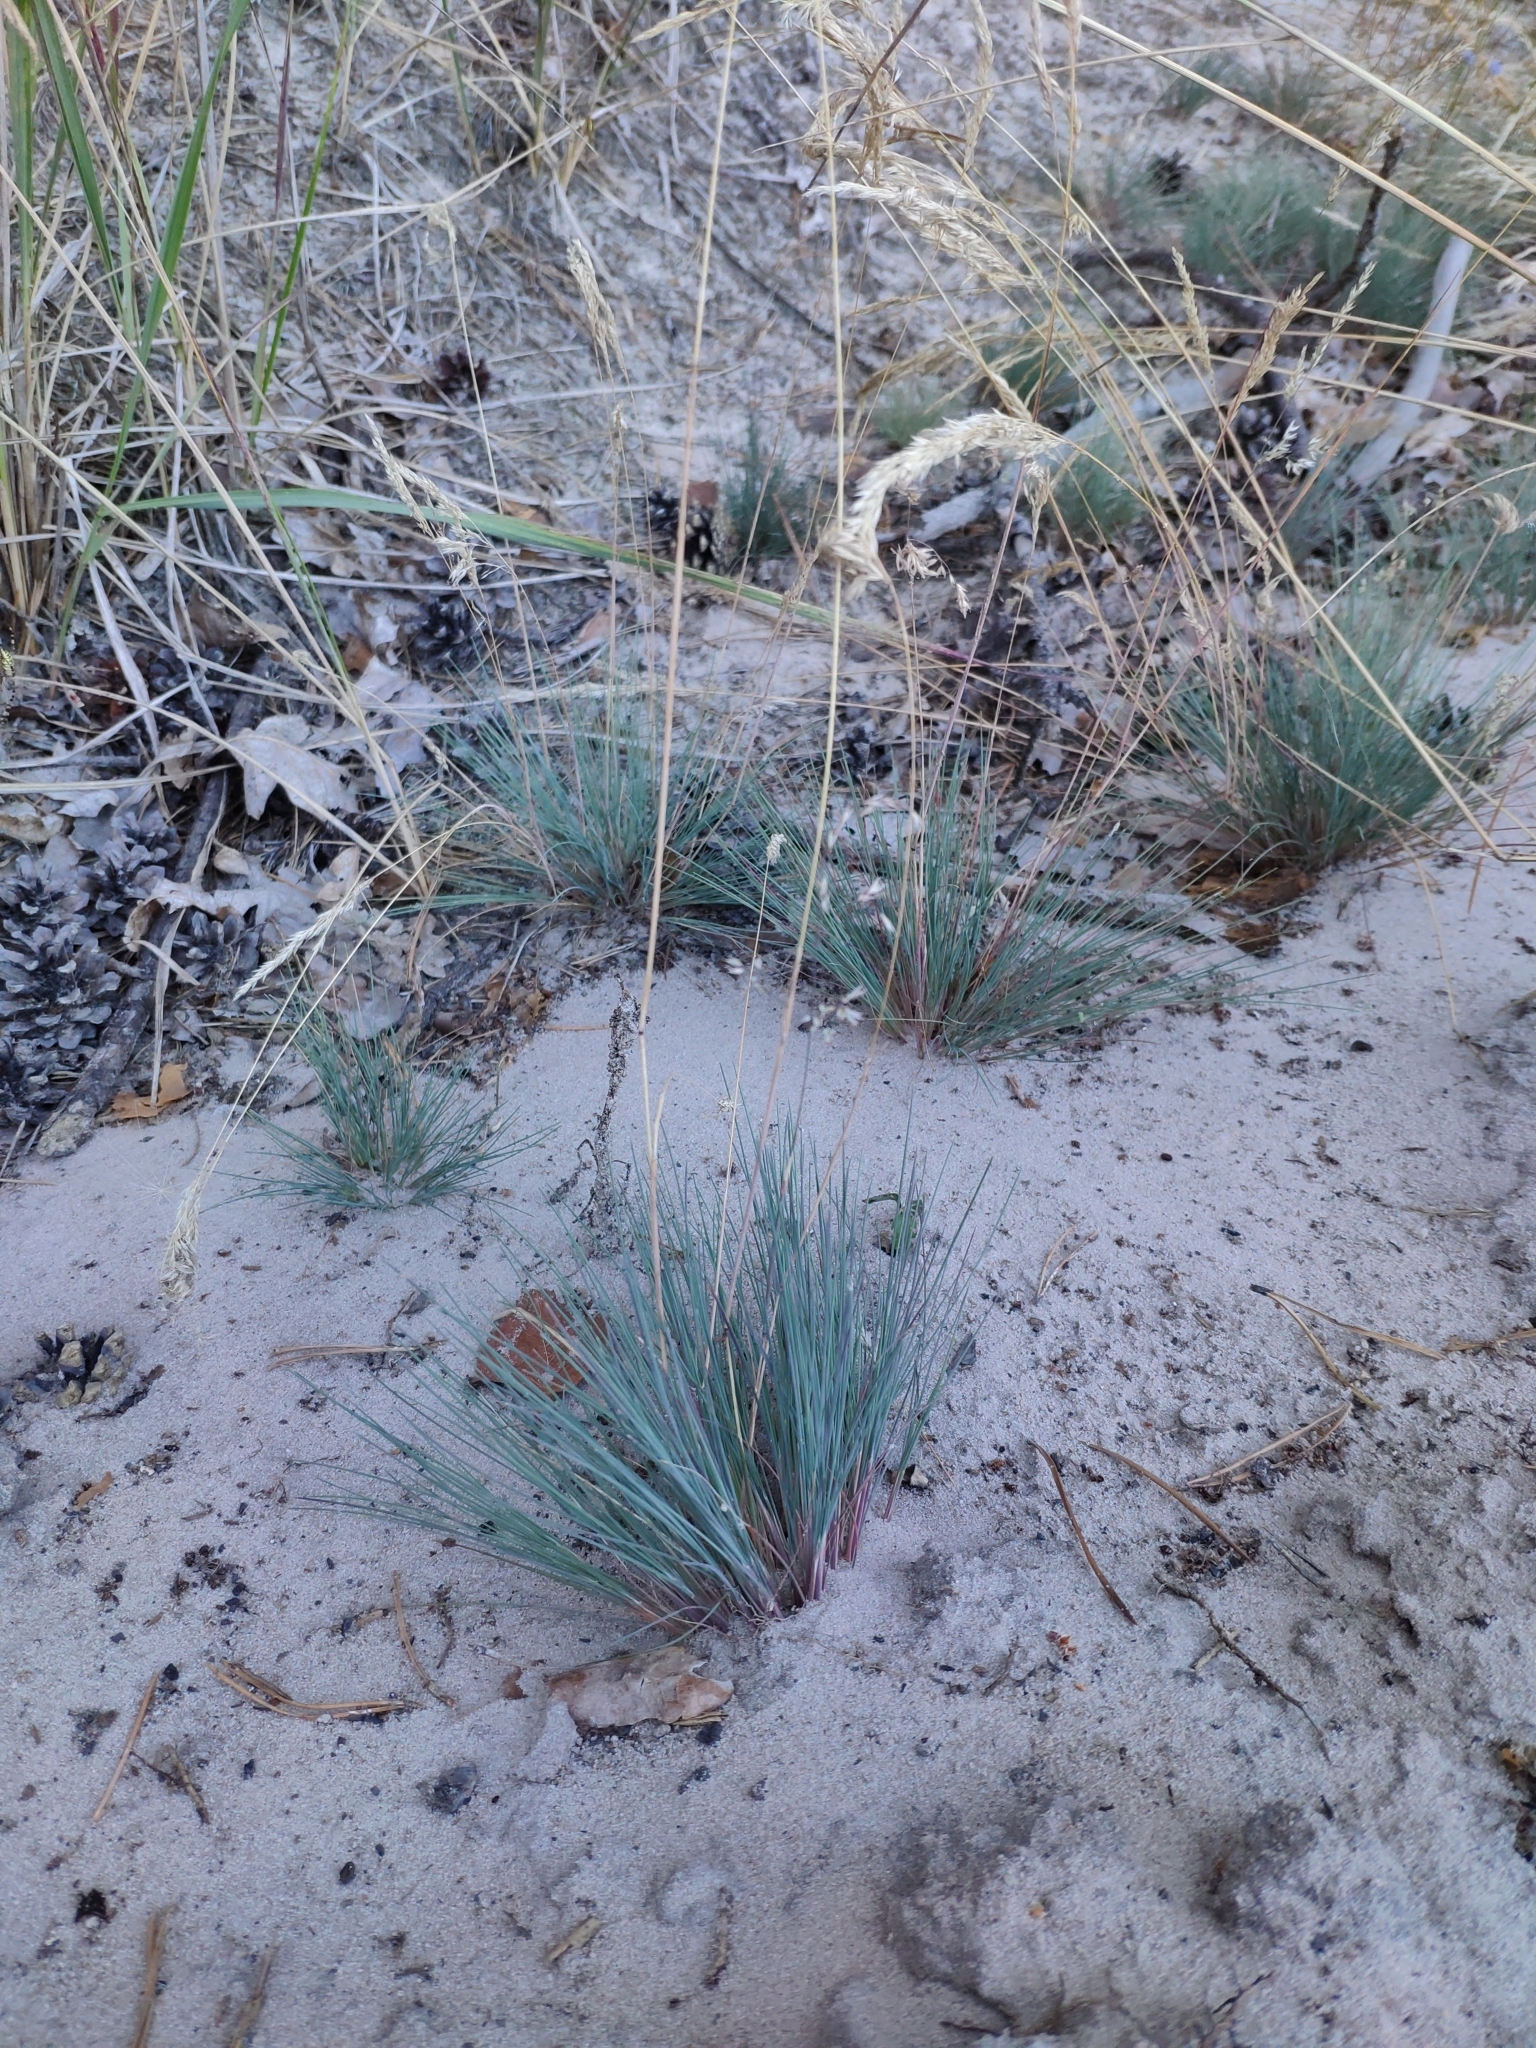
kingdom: Plantae
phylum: Tracheophyta
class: Liliopsida
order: Poales
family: Poaceae
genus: Corynephorus
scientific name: Corynephorus canescens
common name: Grey hair-grass
